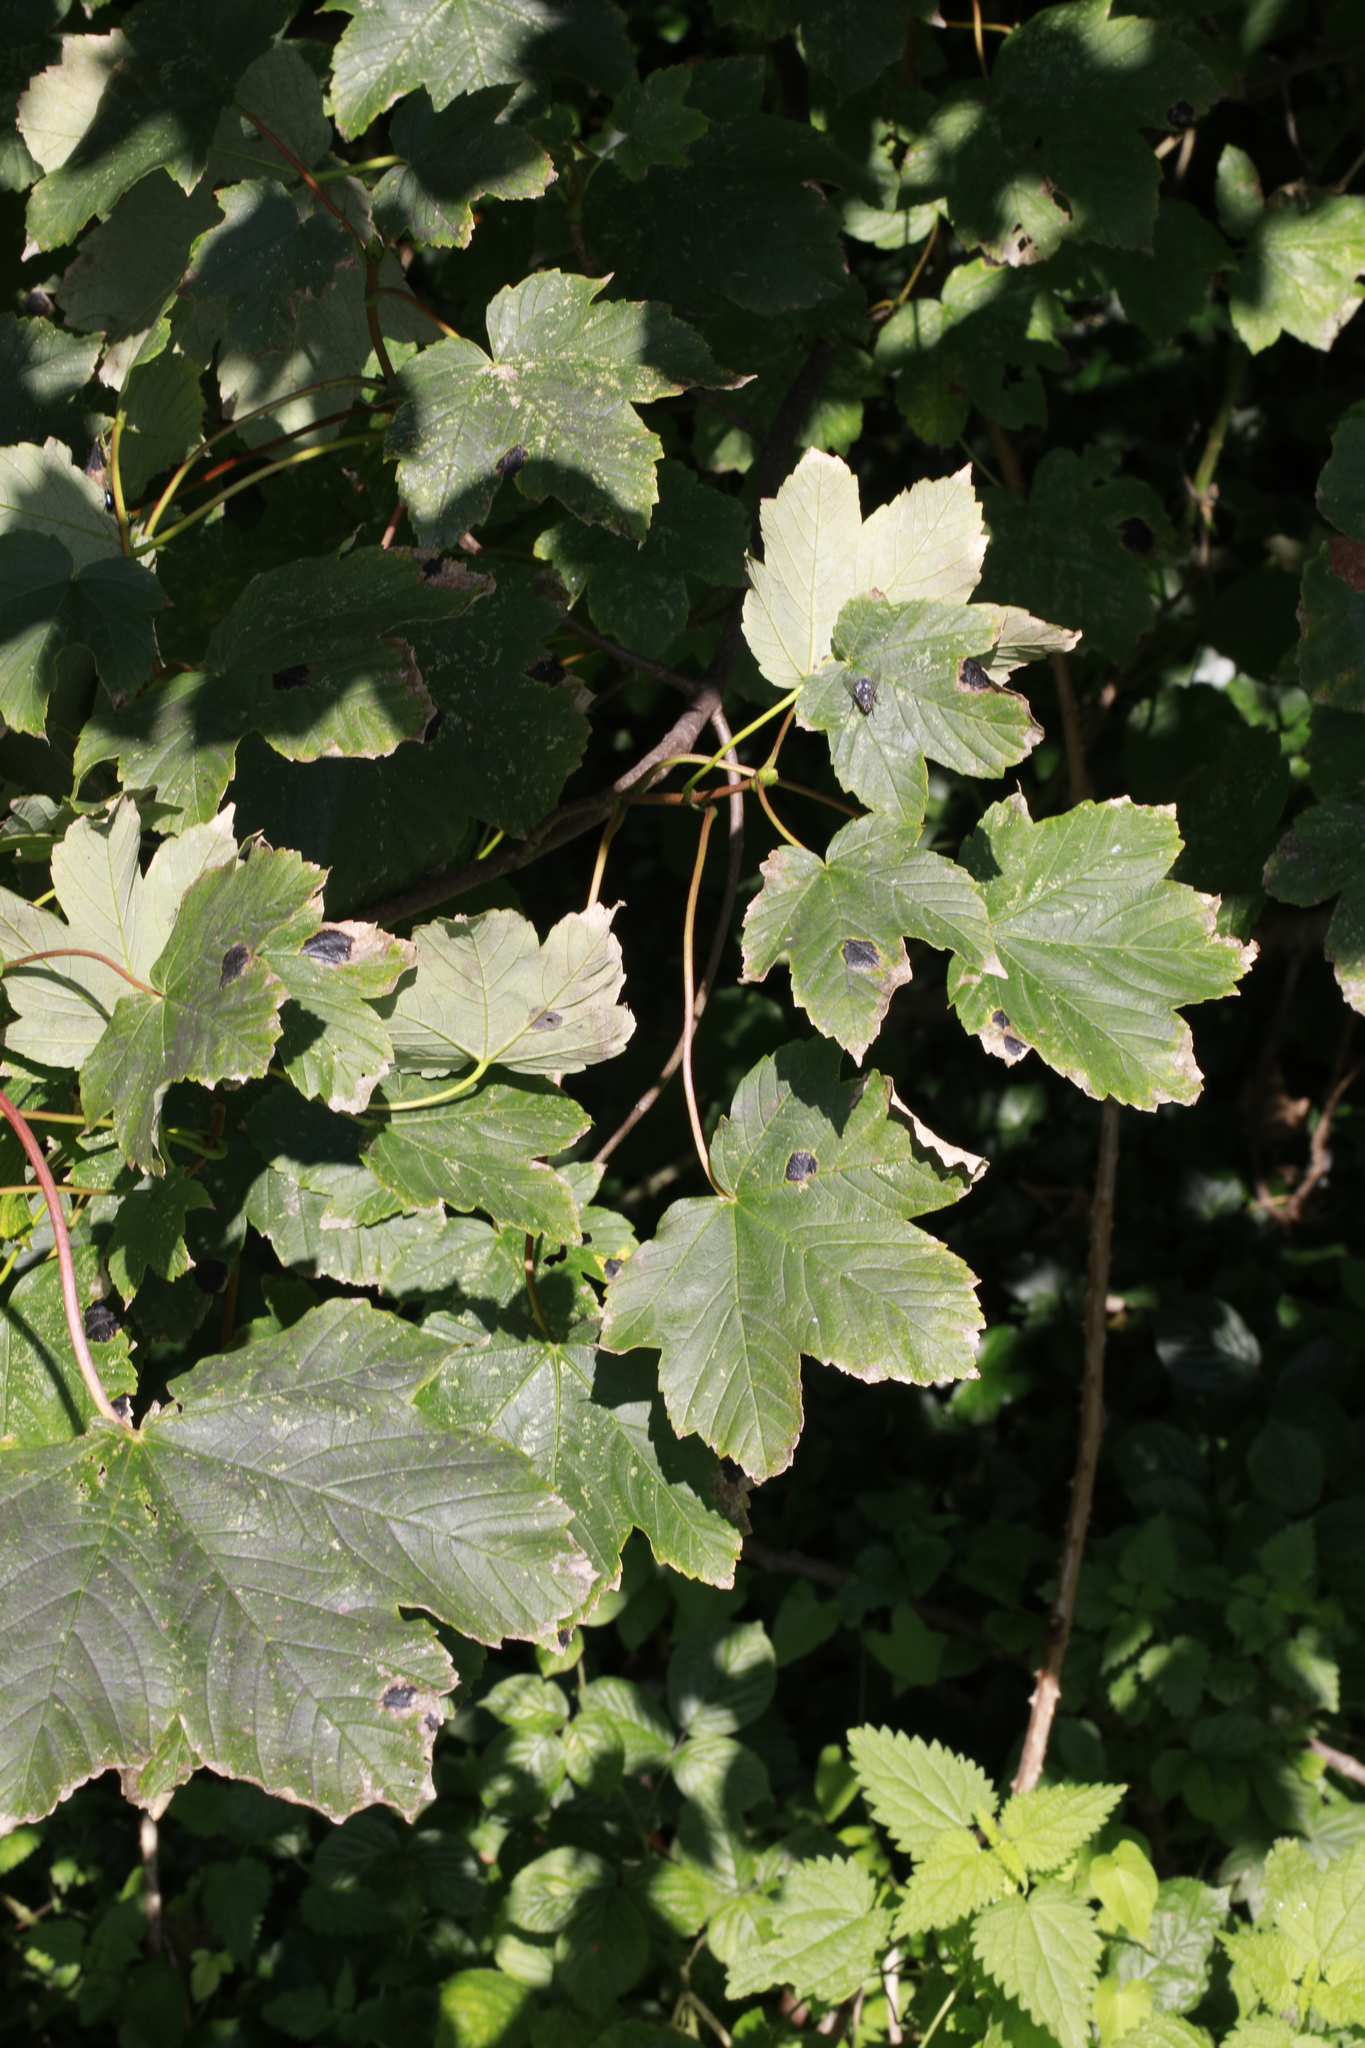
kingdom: Plantae
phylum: Tracheophyta
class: Magnoliopsida
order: Sapindales
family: Sapindaceae
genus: Acer
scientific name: Acer pseudoplatanus
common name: Sycamore
